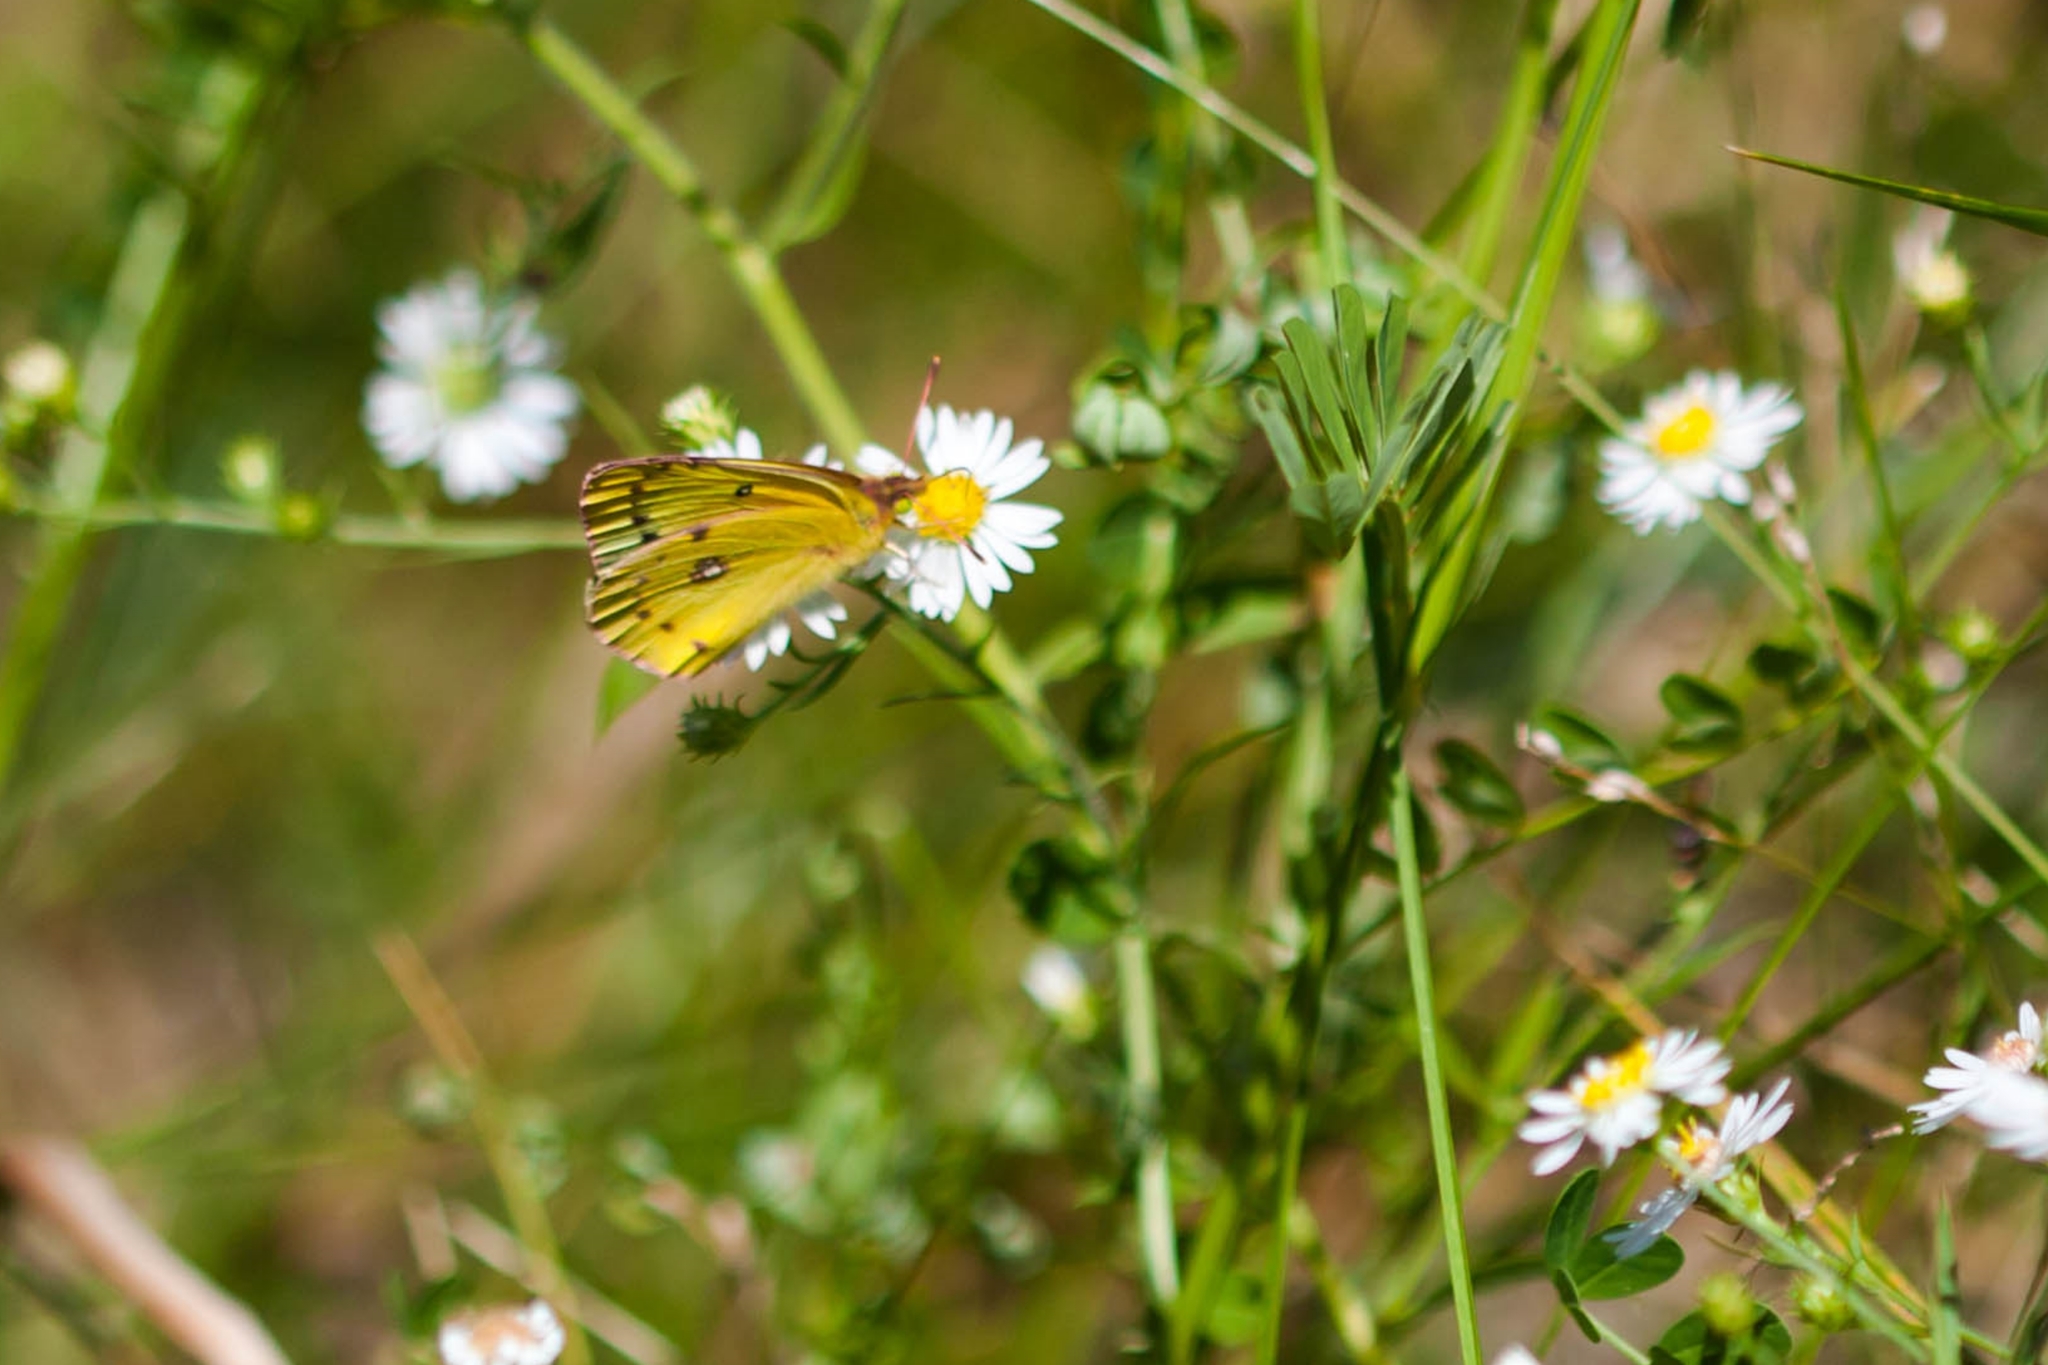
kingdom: Animalia
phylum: Arthropoda
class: Insecta
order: Lepidoptera
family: Pieridae
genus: Colias
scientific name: Colias eurytheme
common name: Alfalfa butterfly
